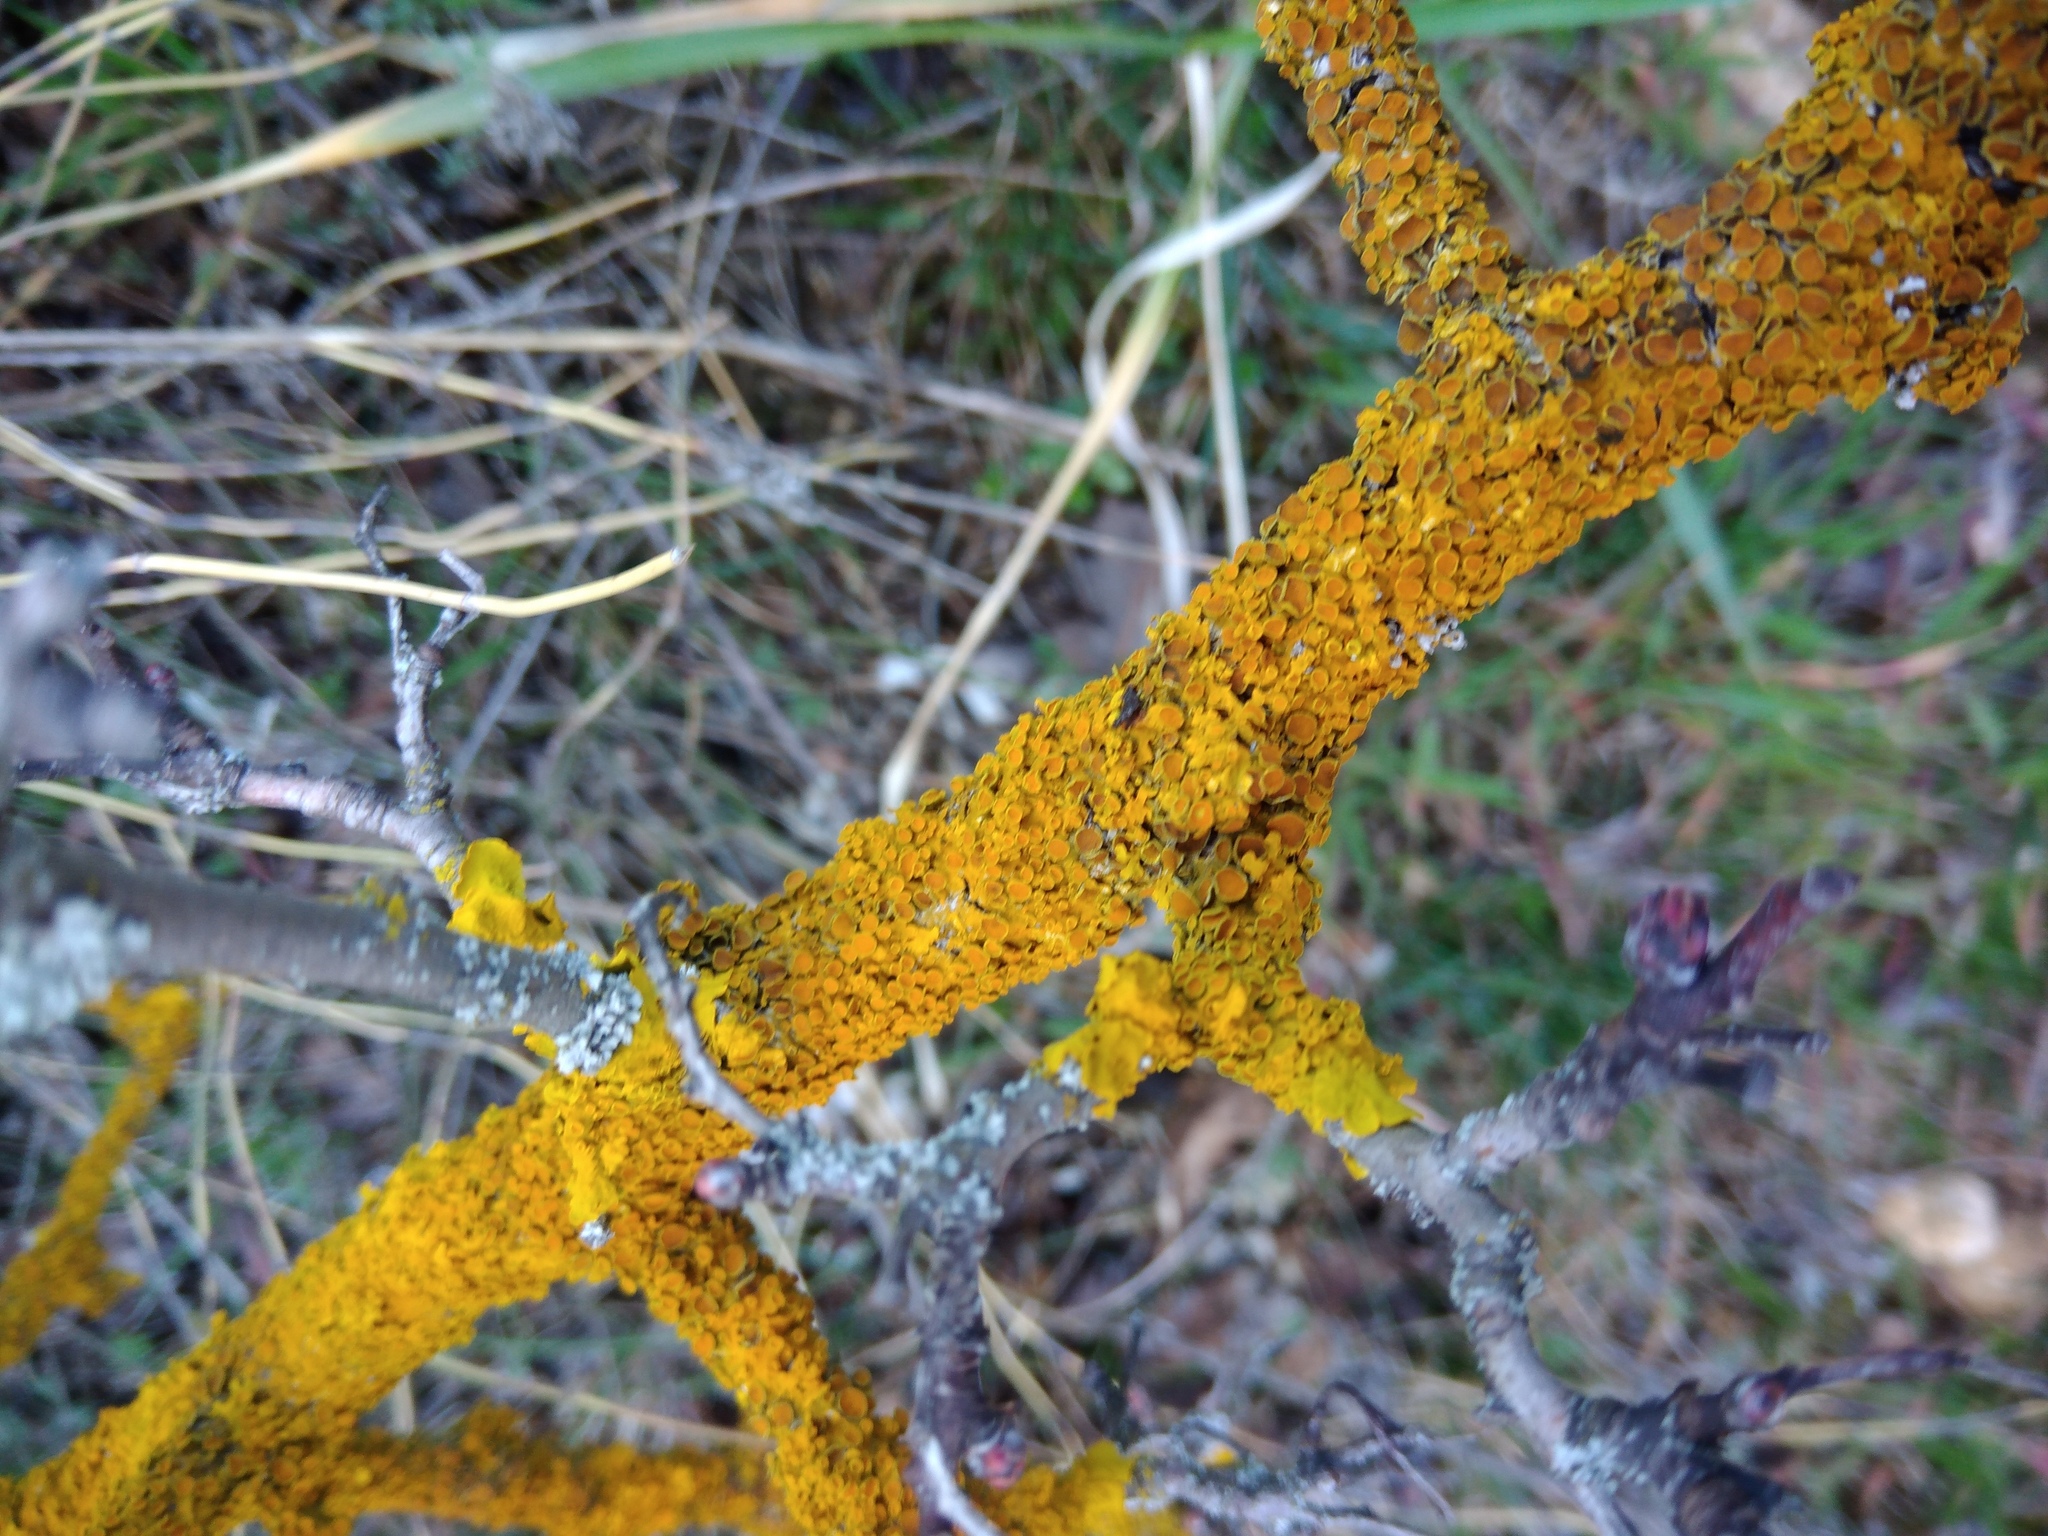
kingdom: Fungi
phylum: Ascomycota
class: Lecanoromycetes
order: Teloschistales
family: Teloschistaceae
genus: Xanthoria
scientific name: Xanthoria parietina
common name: Common orange lichen
